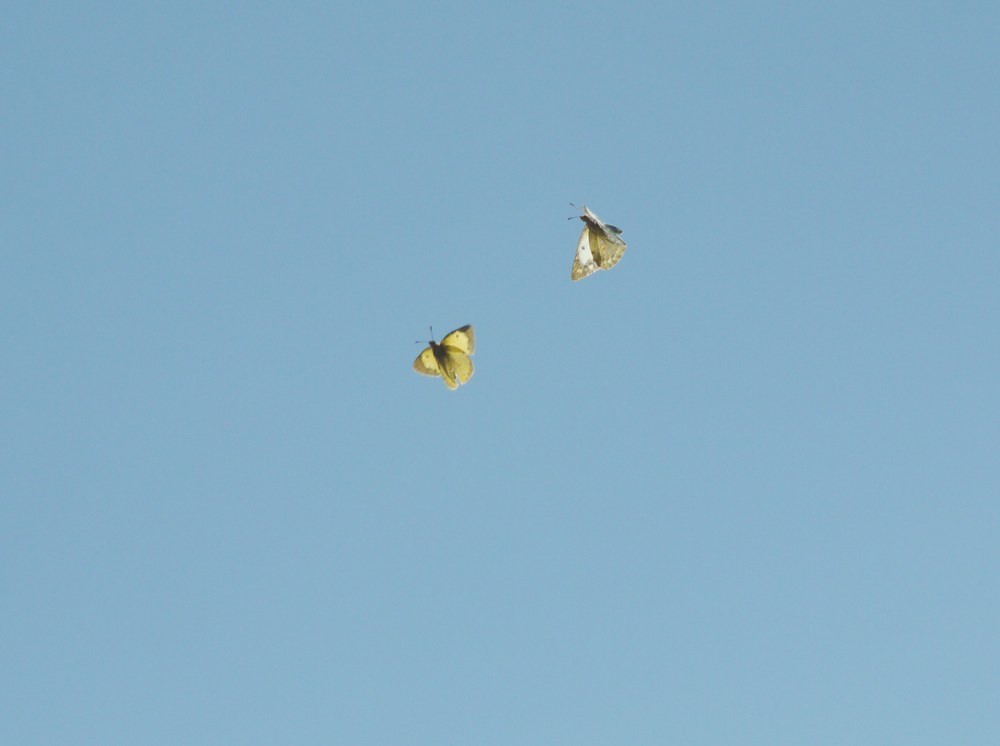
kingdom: Animalia
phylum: Arthropoda
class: Insecta
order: Lepidoptera
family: Pieridae
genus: Colias
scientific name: Colias erate
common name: Eastern pale clouded yellow
